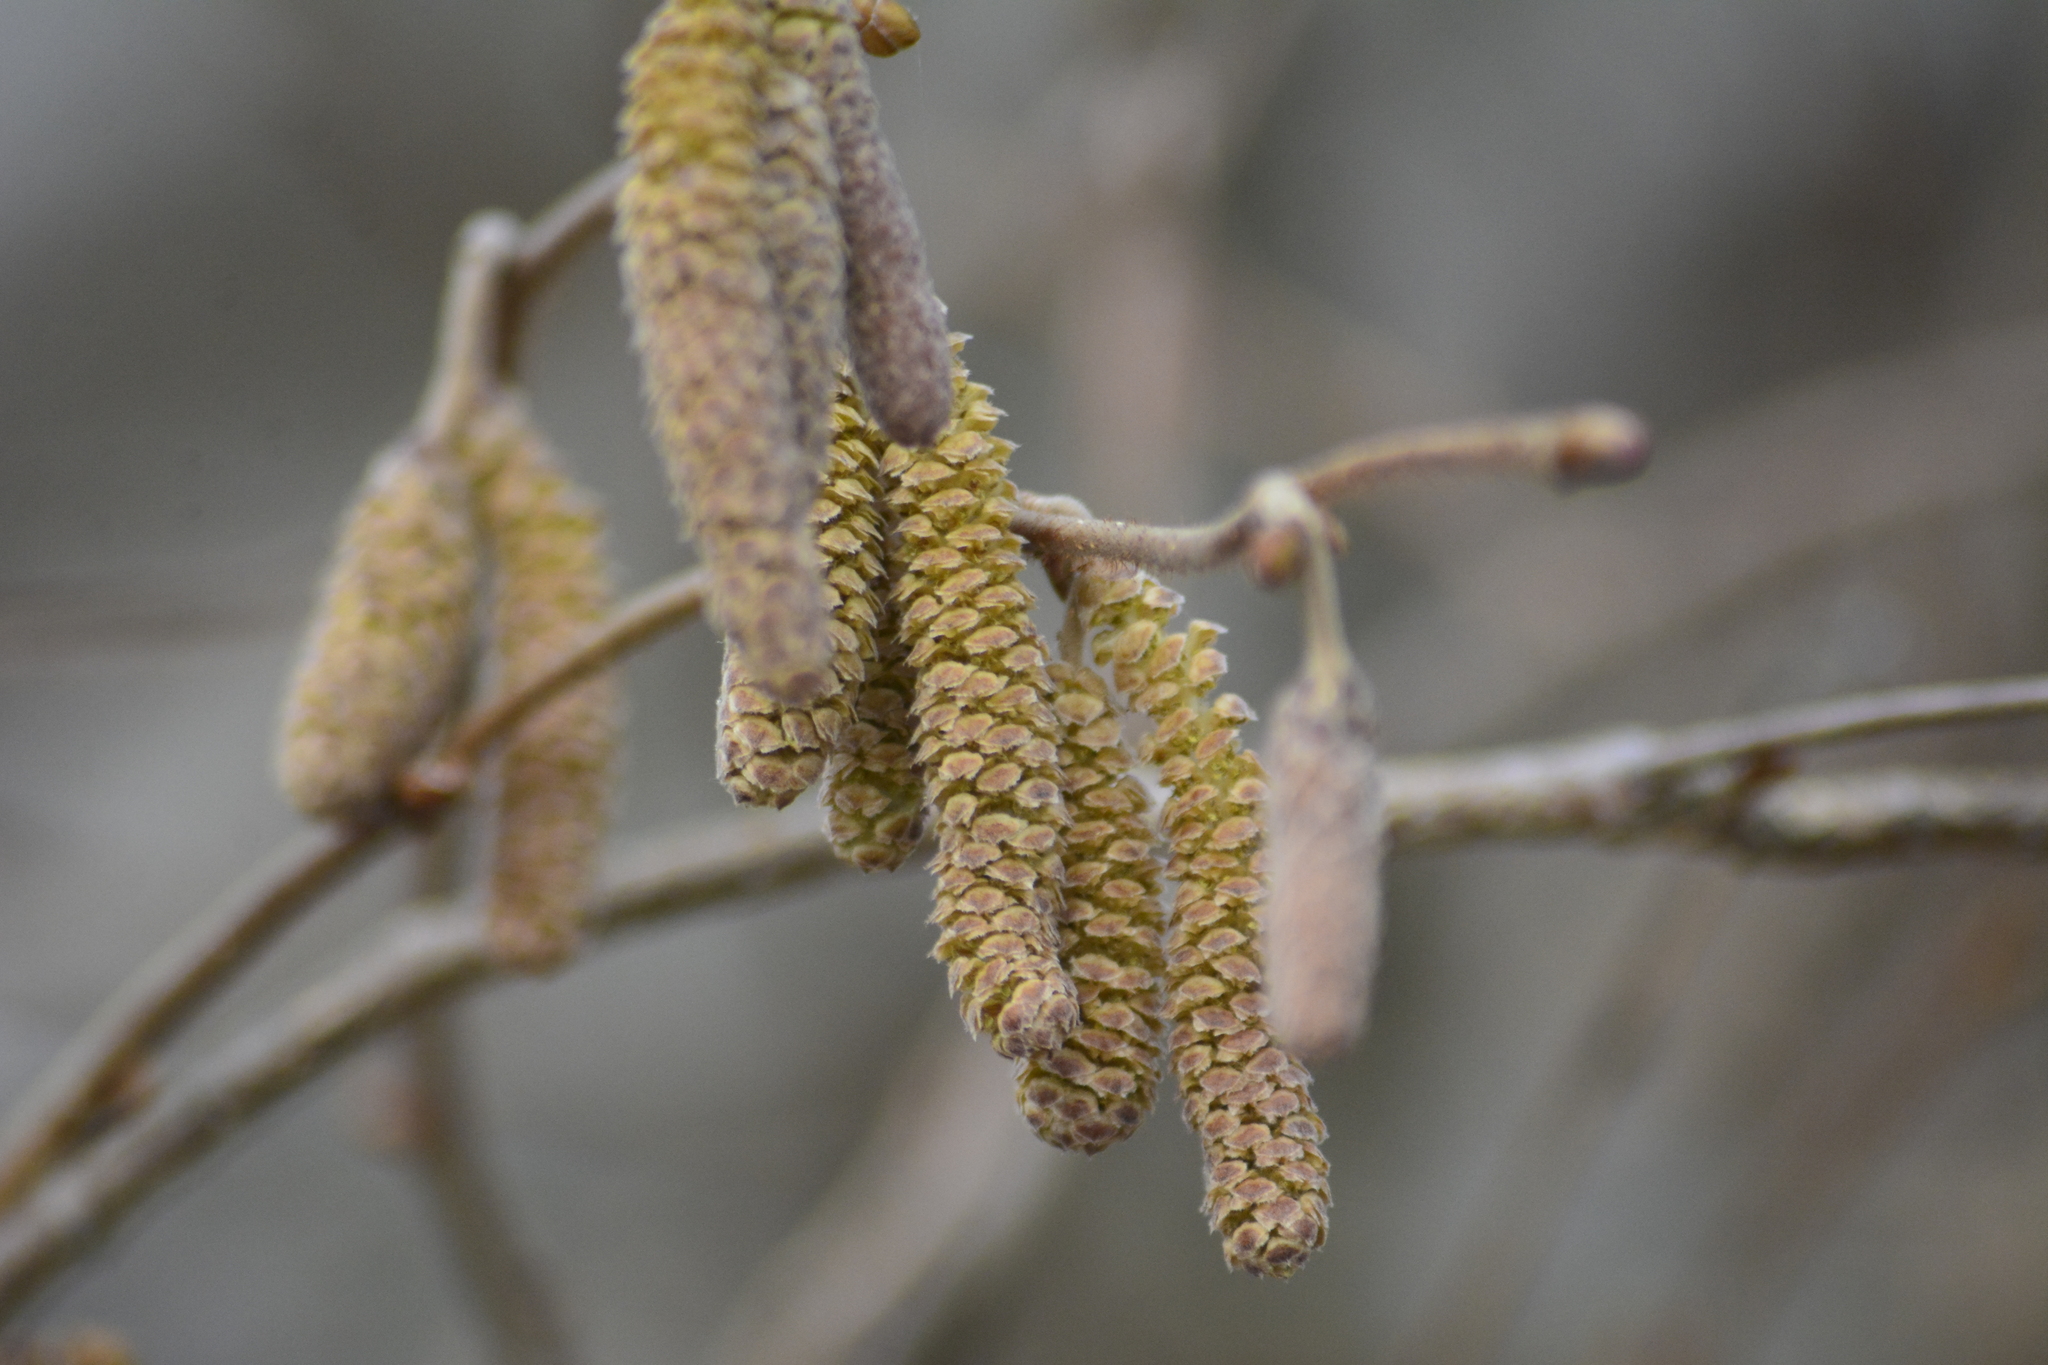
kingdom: Plantae
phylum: Tracheophyta
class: Magnoliopsida
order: Fagales
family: Betulaceae
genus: Corylus
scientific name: Corylus avellana
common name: European hazel
